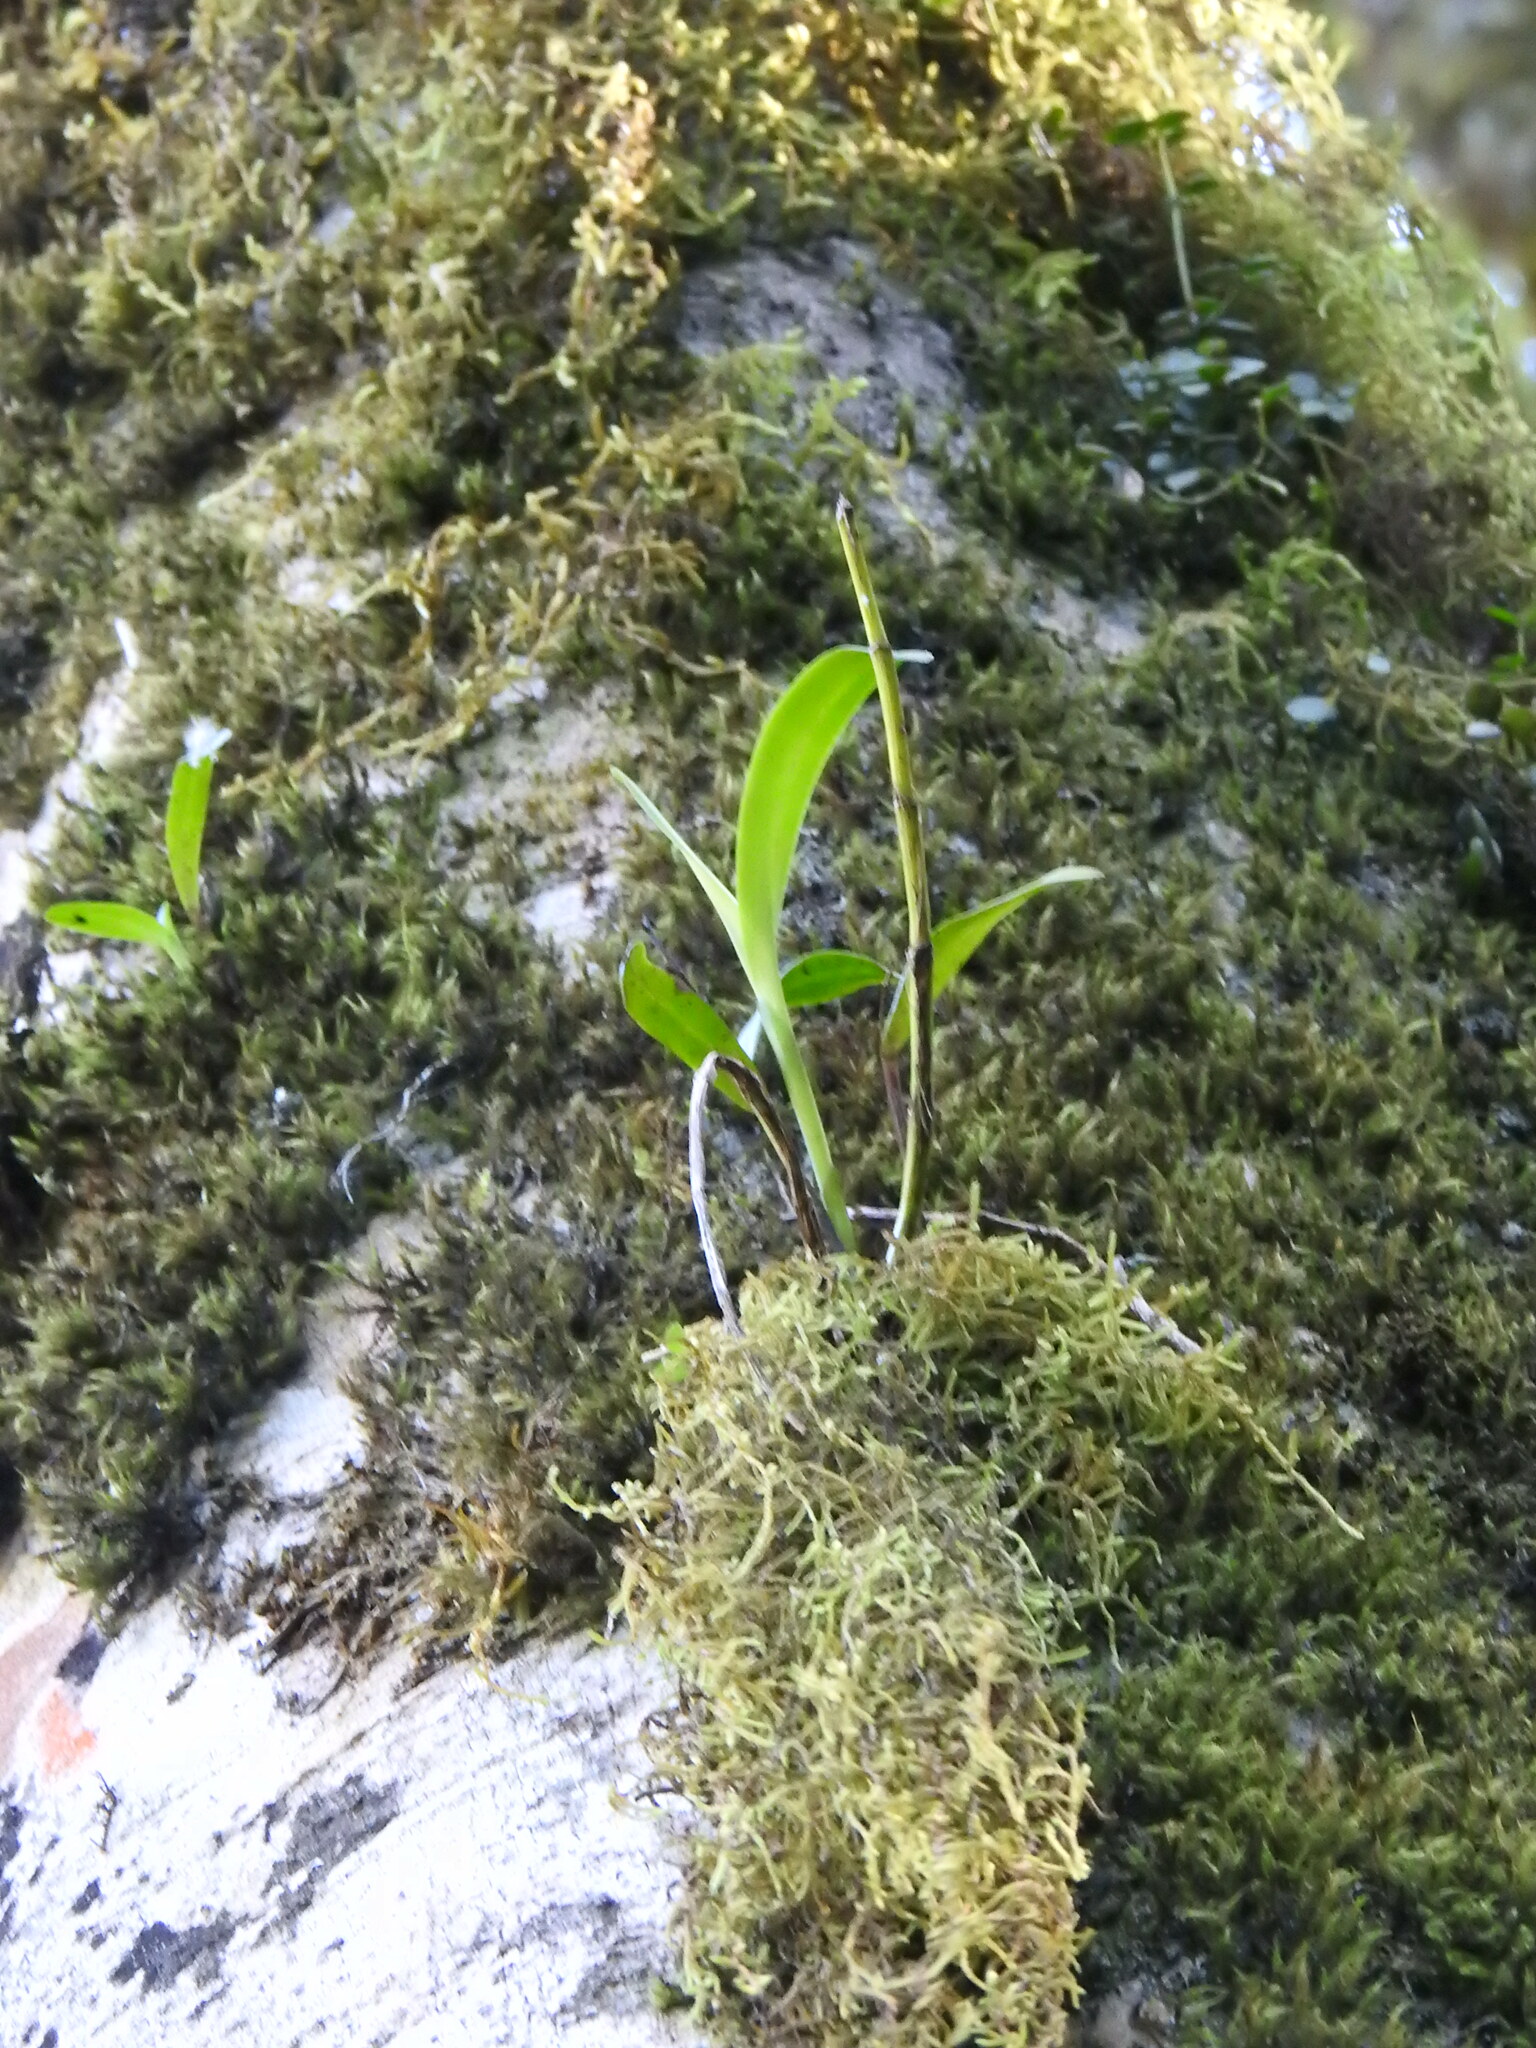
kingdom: Plantae
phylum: Tracheophyta
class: Liliopsida
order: Asparagales
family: Orchidaceae
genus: Polystachya
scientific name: Polystachya transvaalensis
